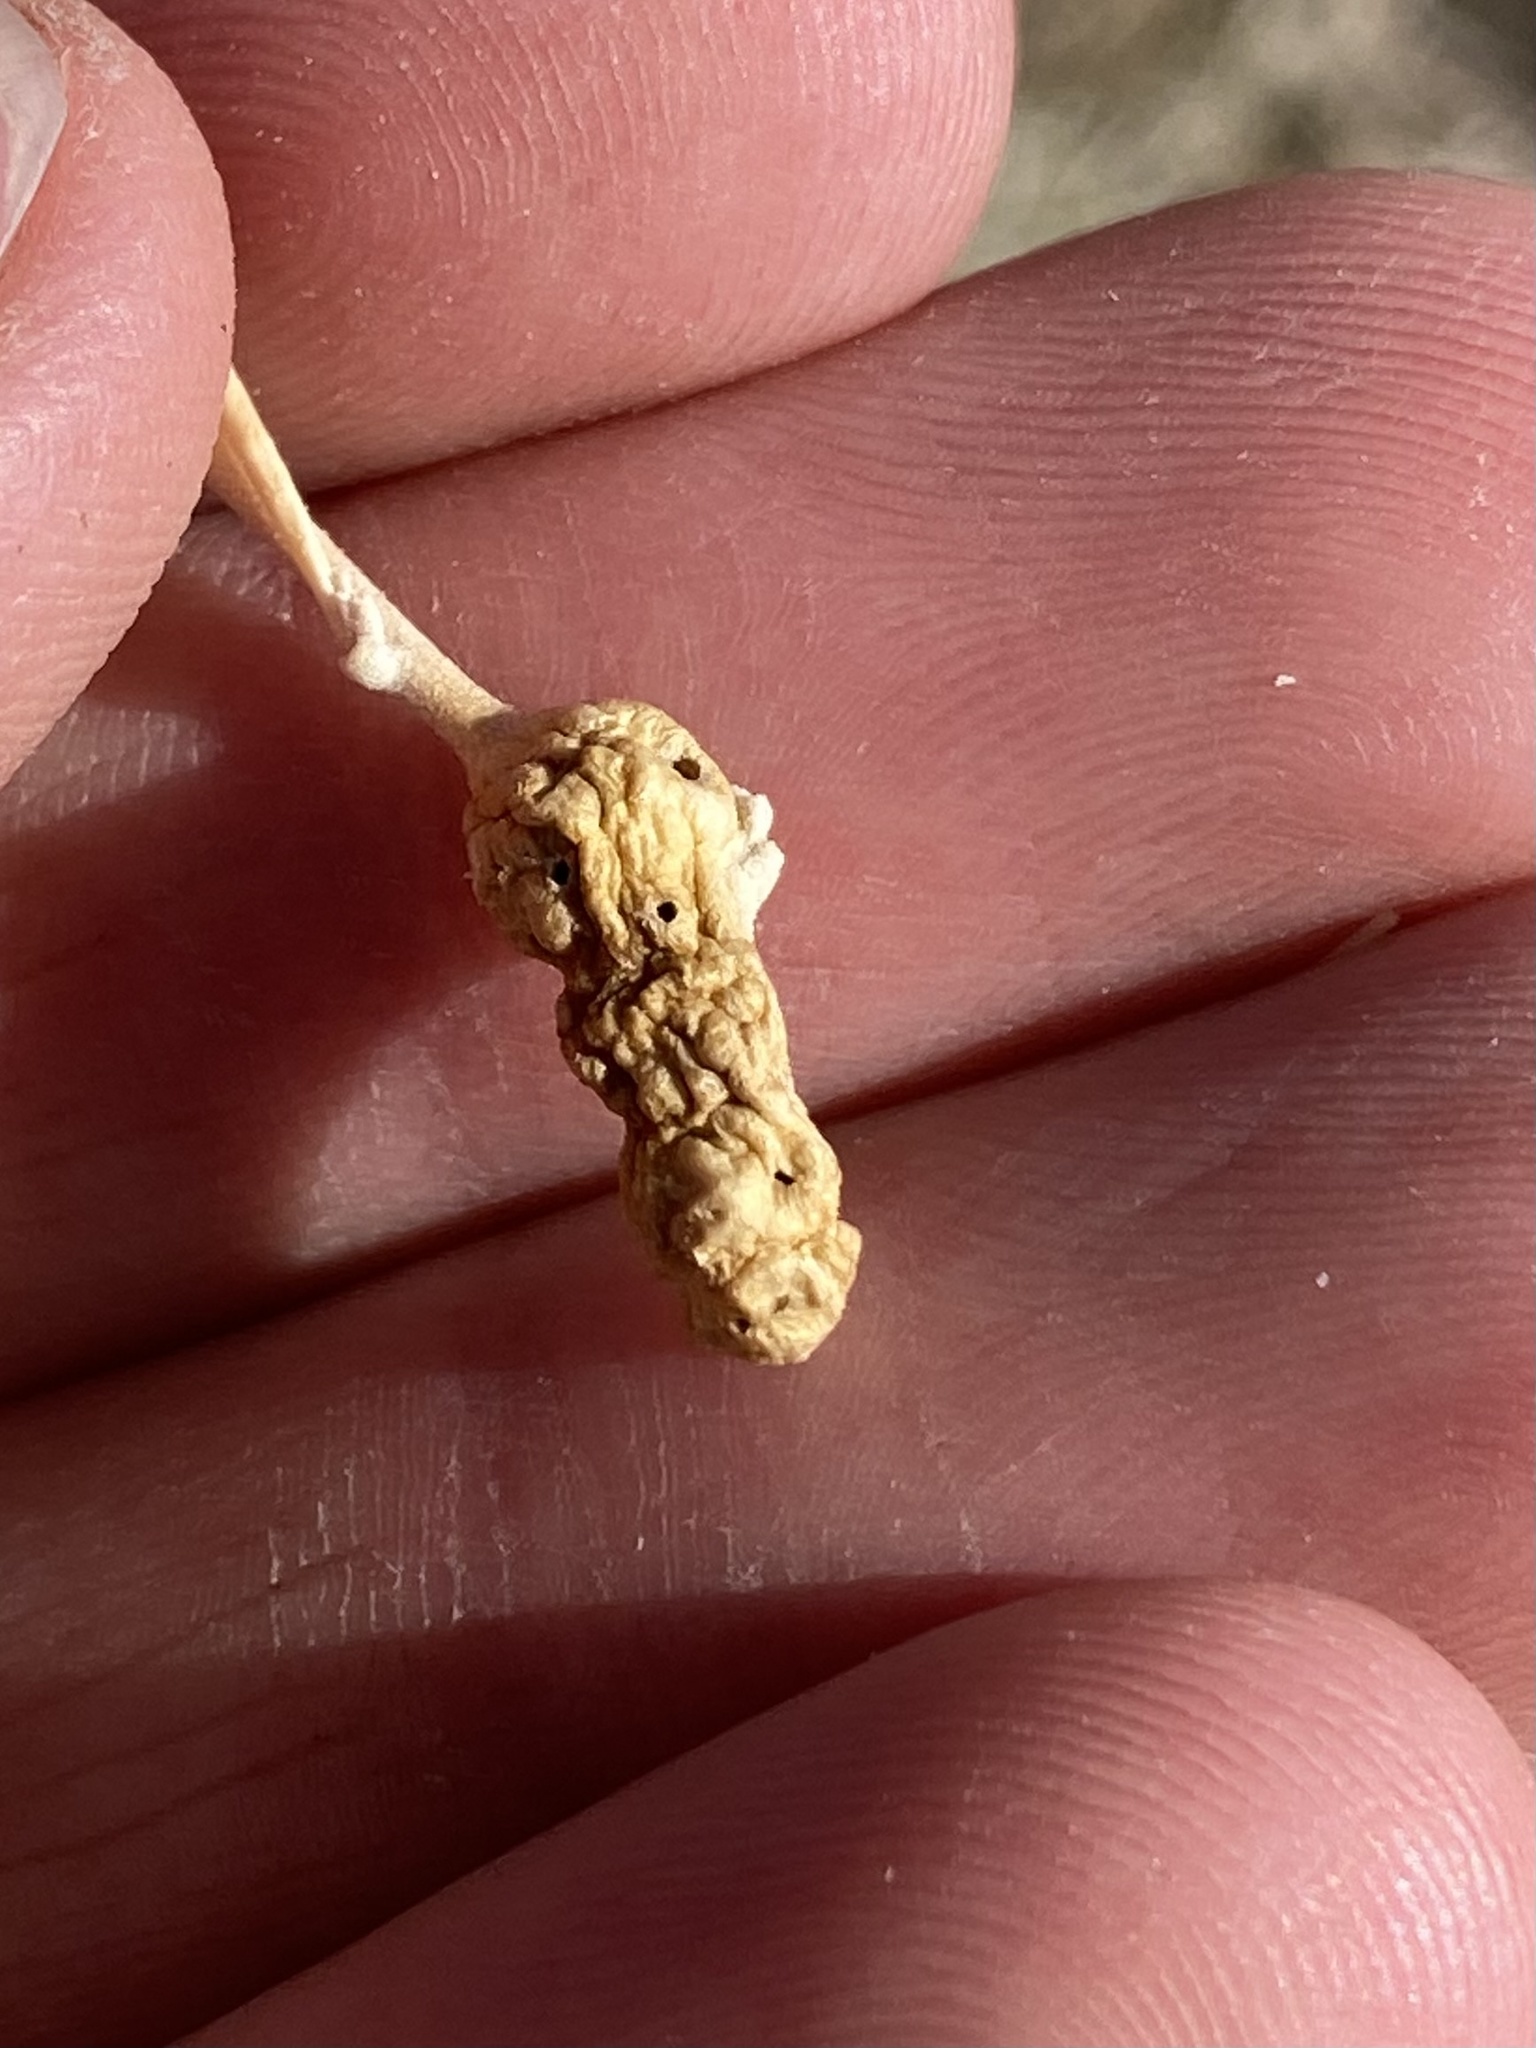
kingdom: Animalia
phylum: Arthropoda
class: Insecta
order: Diptera
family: Cecidomyiidae
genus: Asphondylia
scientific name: Asphondylia atriplicis
